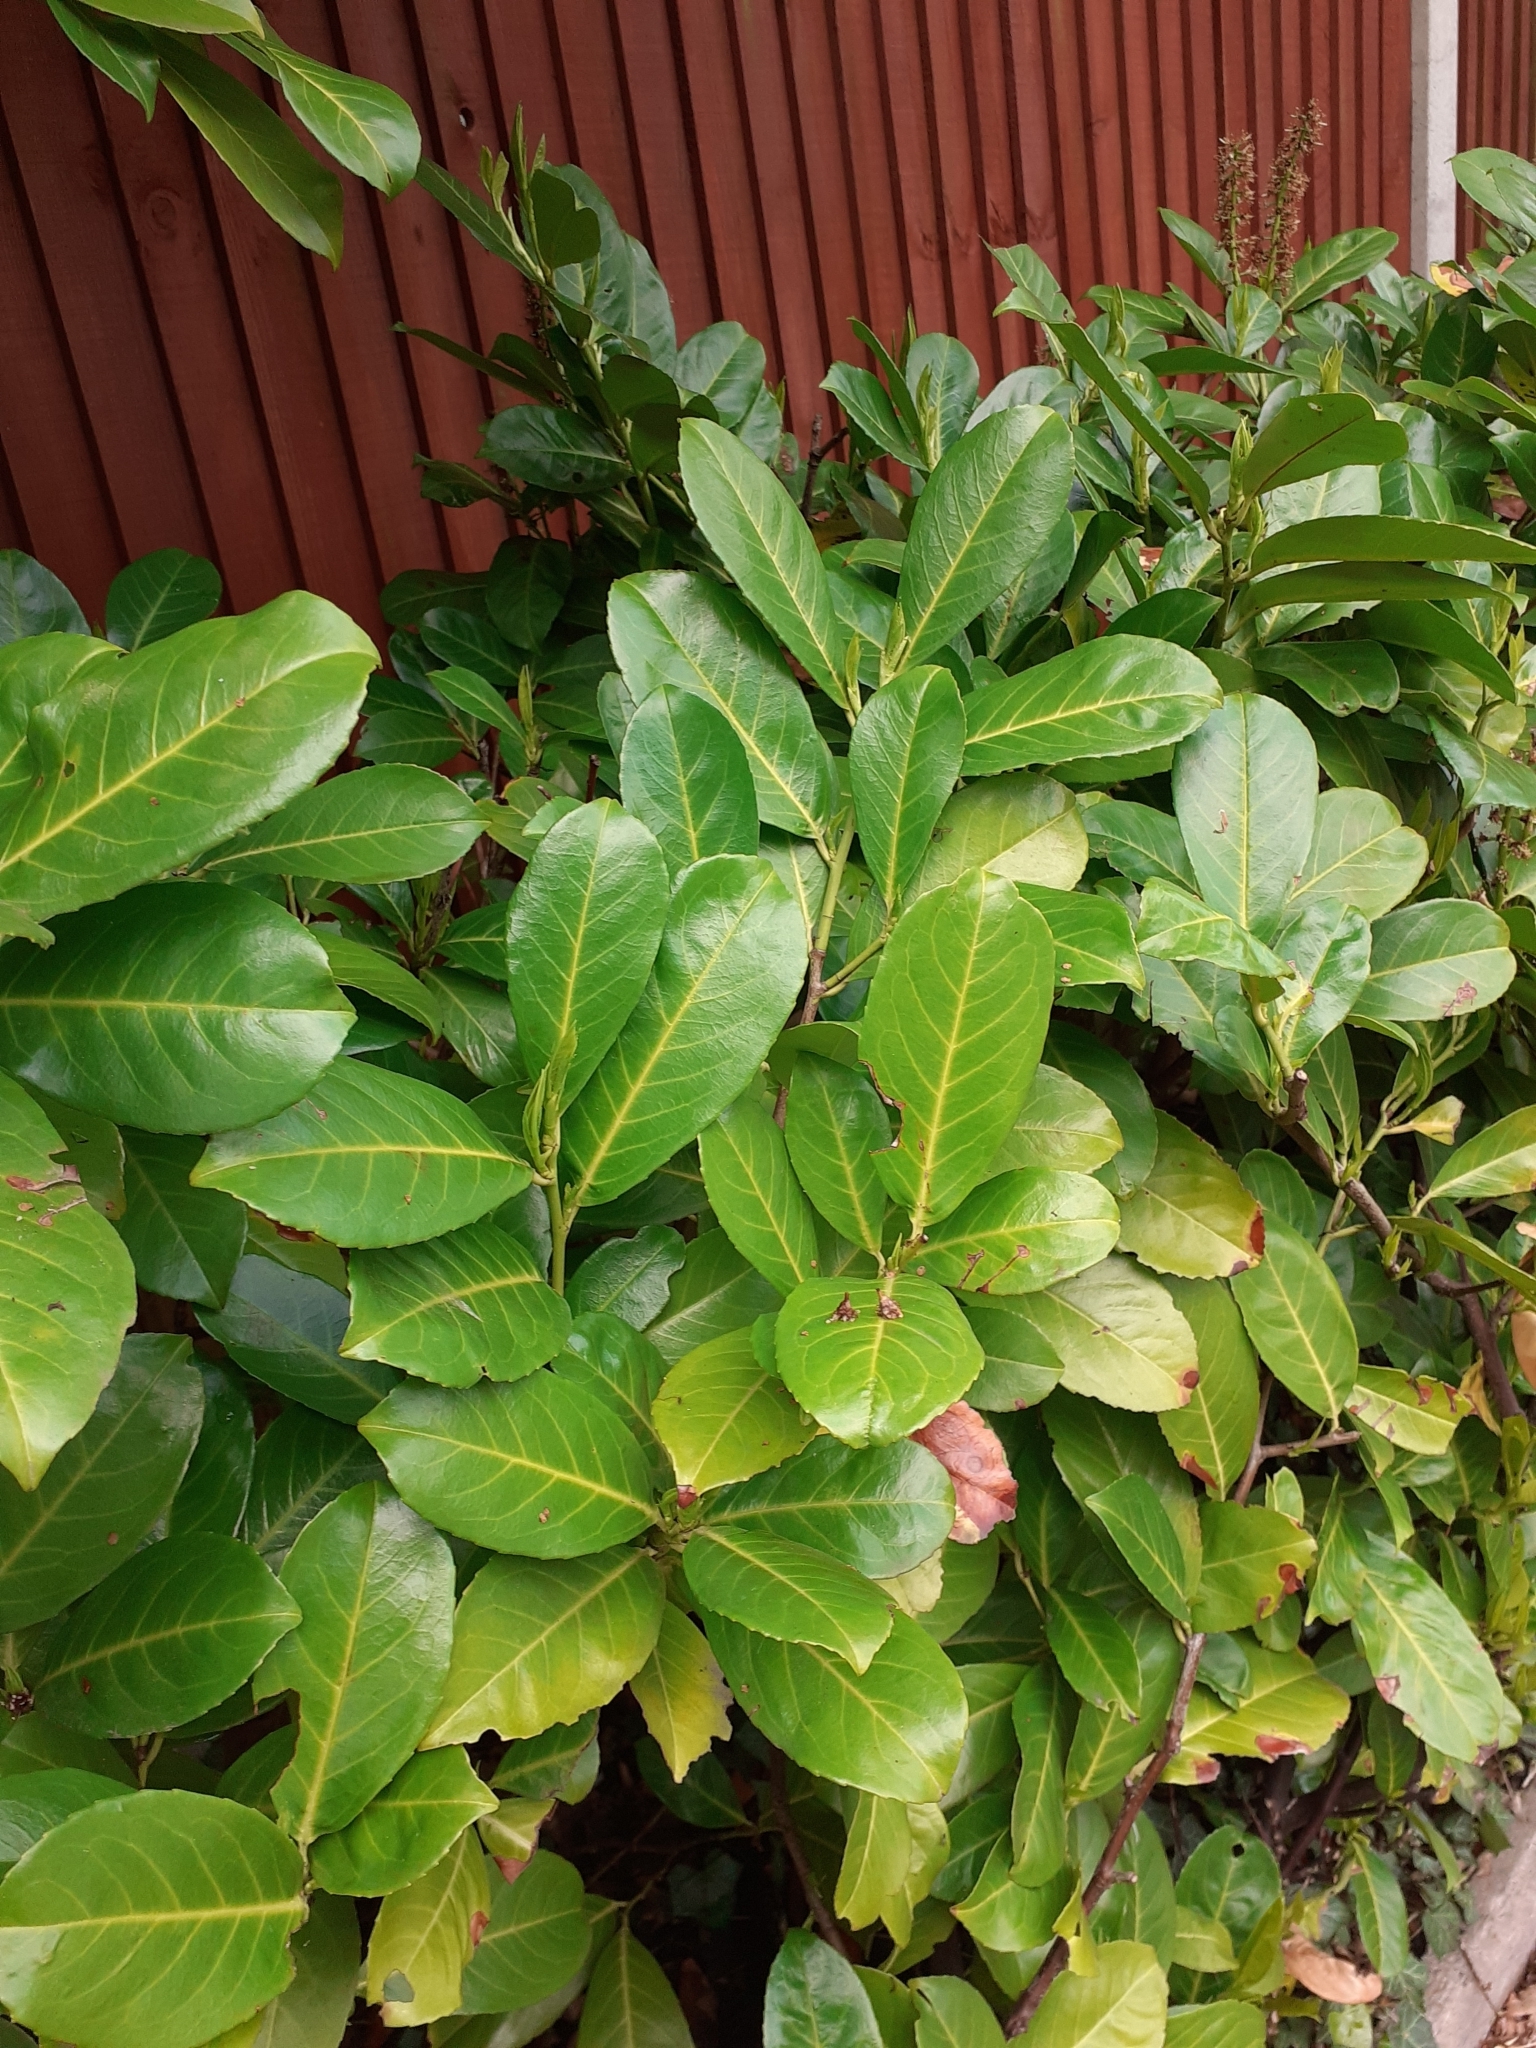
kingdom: Plantae
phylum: Tracheophyta
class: Magnoliopsida
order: Rosales
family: Rosaceae
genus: Prunus
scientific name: Prunus laurocerasus
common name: Cherry laurel
